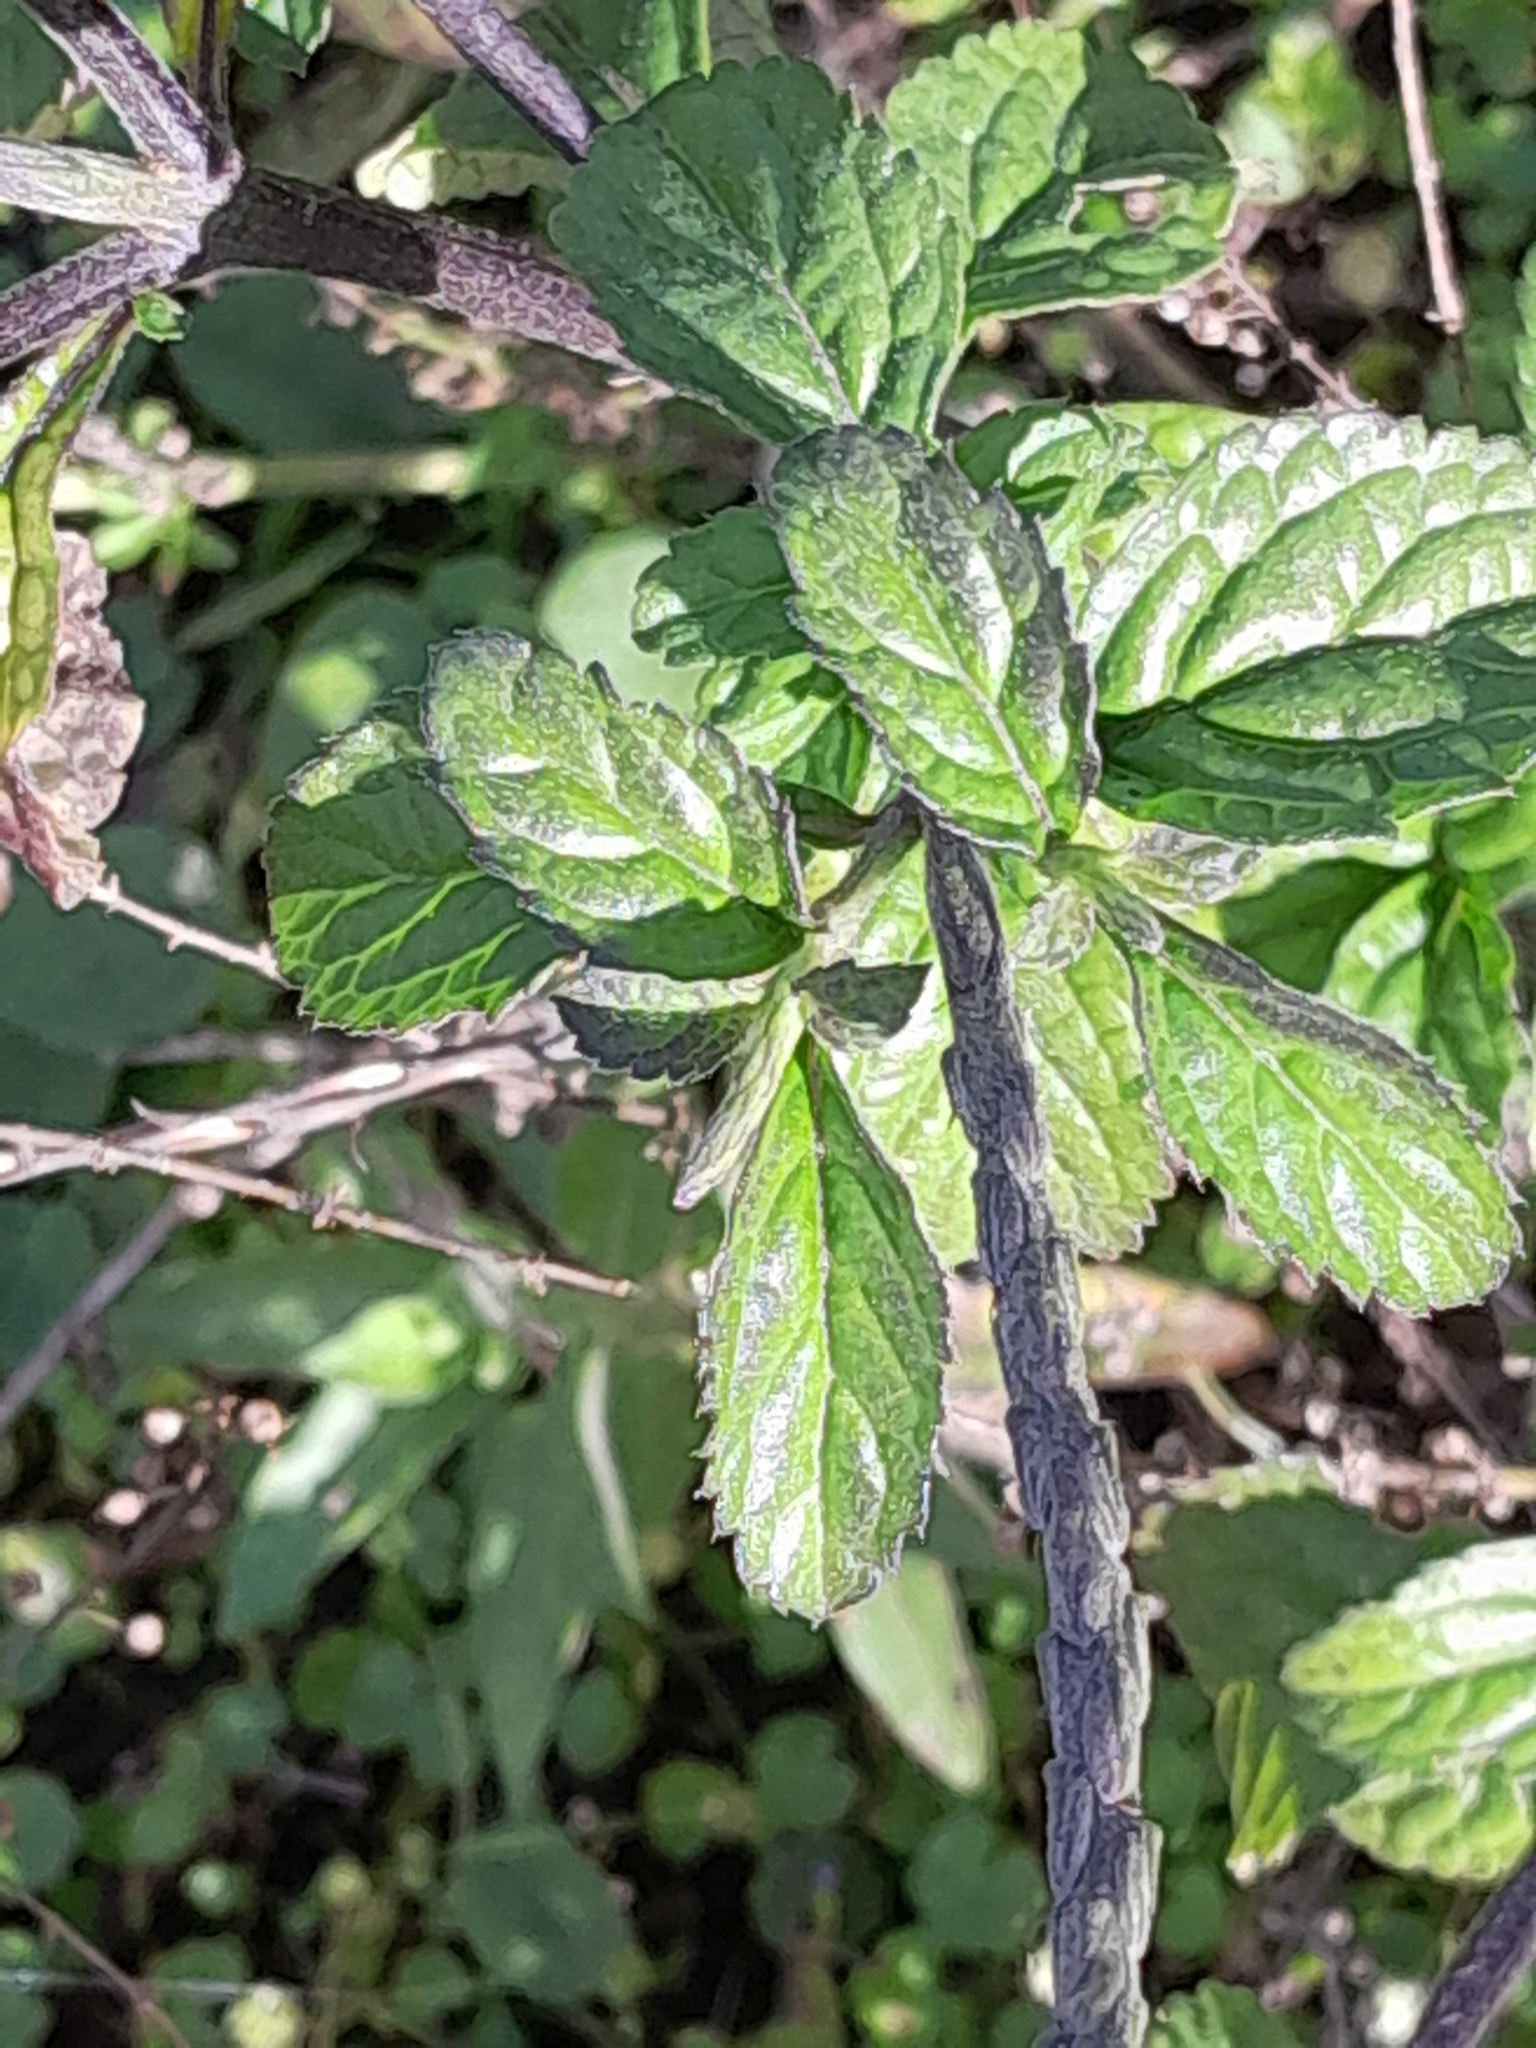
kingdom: Plantae
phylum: Tracheophyta
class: Magnoliopsida
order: Lamiales
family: Verbenaceae
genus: Stachytarpheta
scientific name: Stachytarpheta cayennensis
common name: Cayenne porterweed
